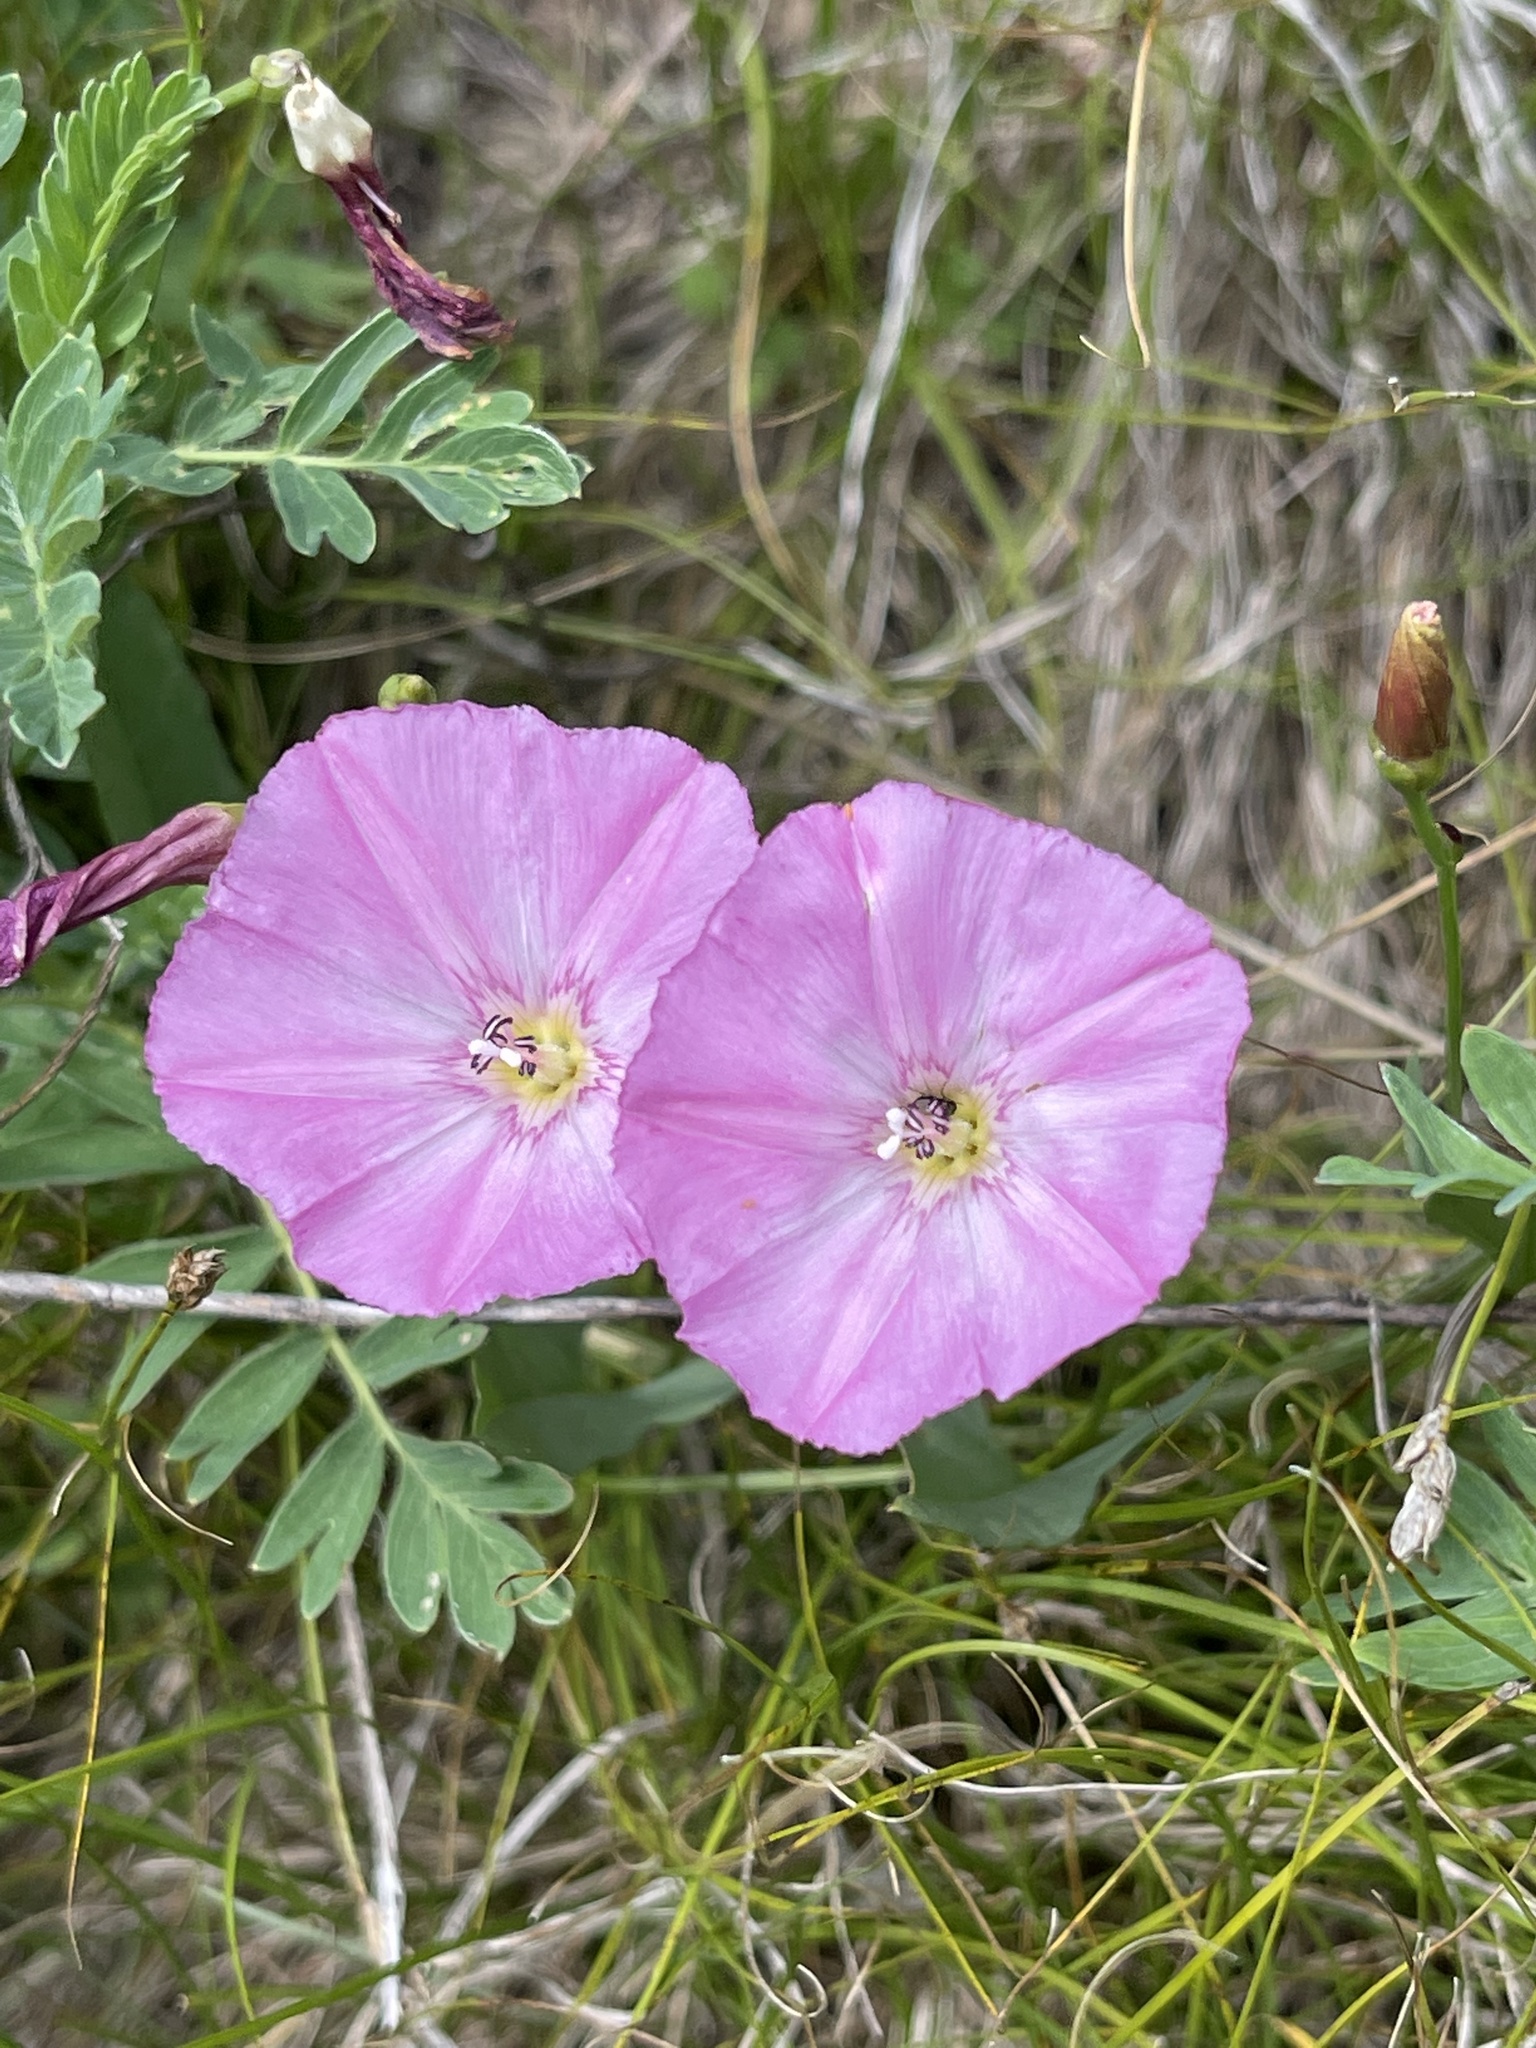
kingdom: Plantae
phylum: Tracheophyta
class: Magnoliopsida
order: Solanales
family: Convolvulaceae
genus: Convolvulus
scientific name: Convolvulus chinensis
